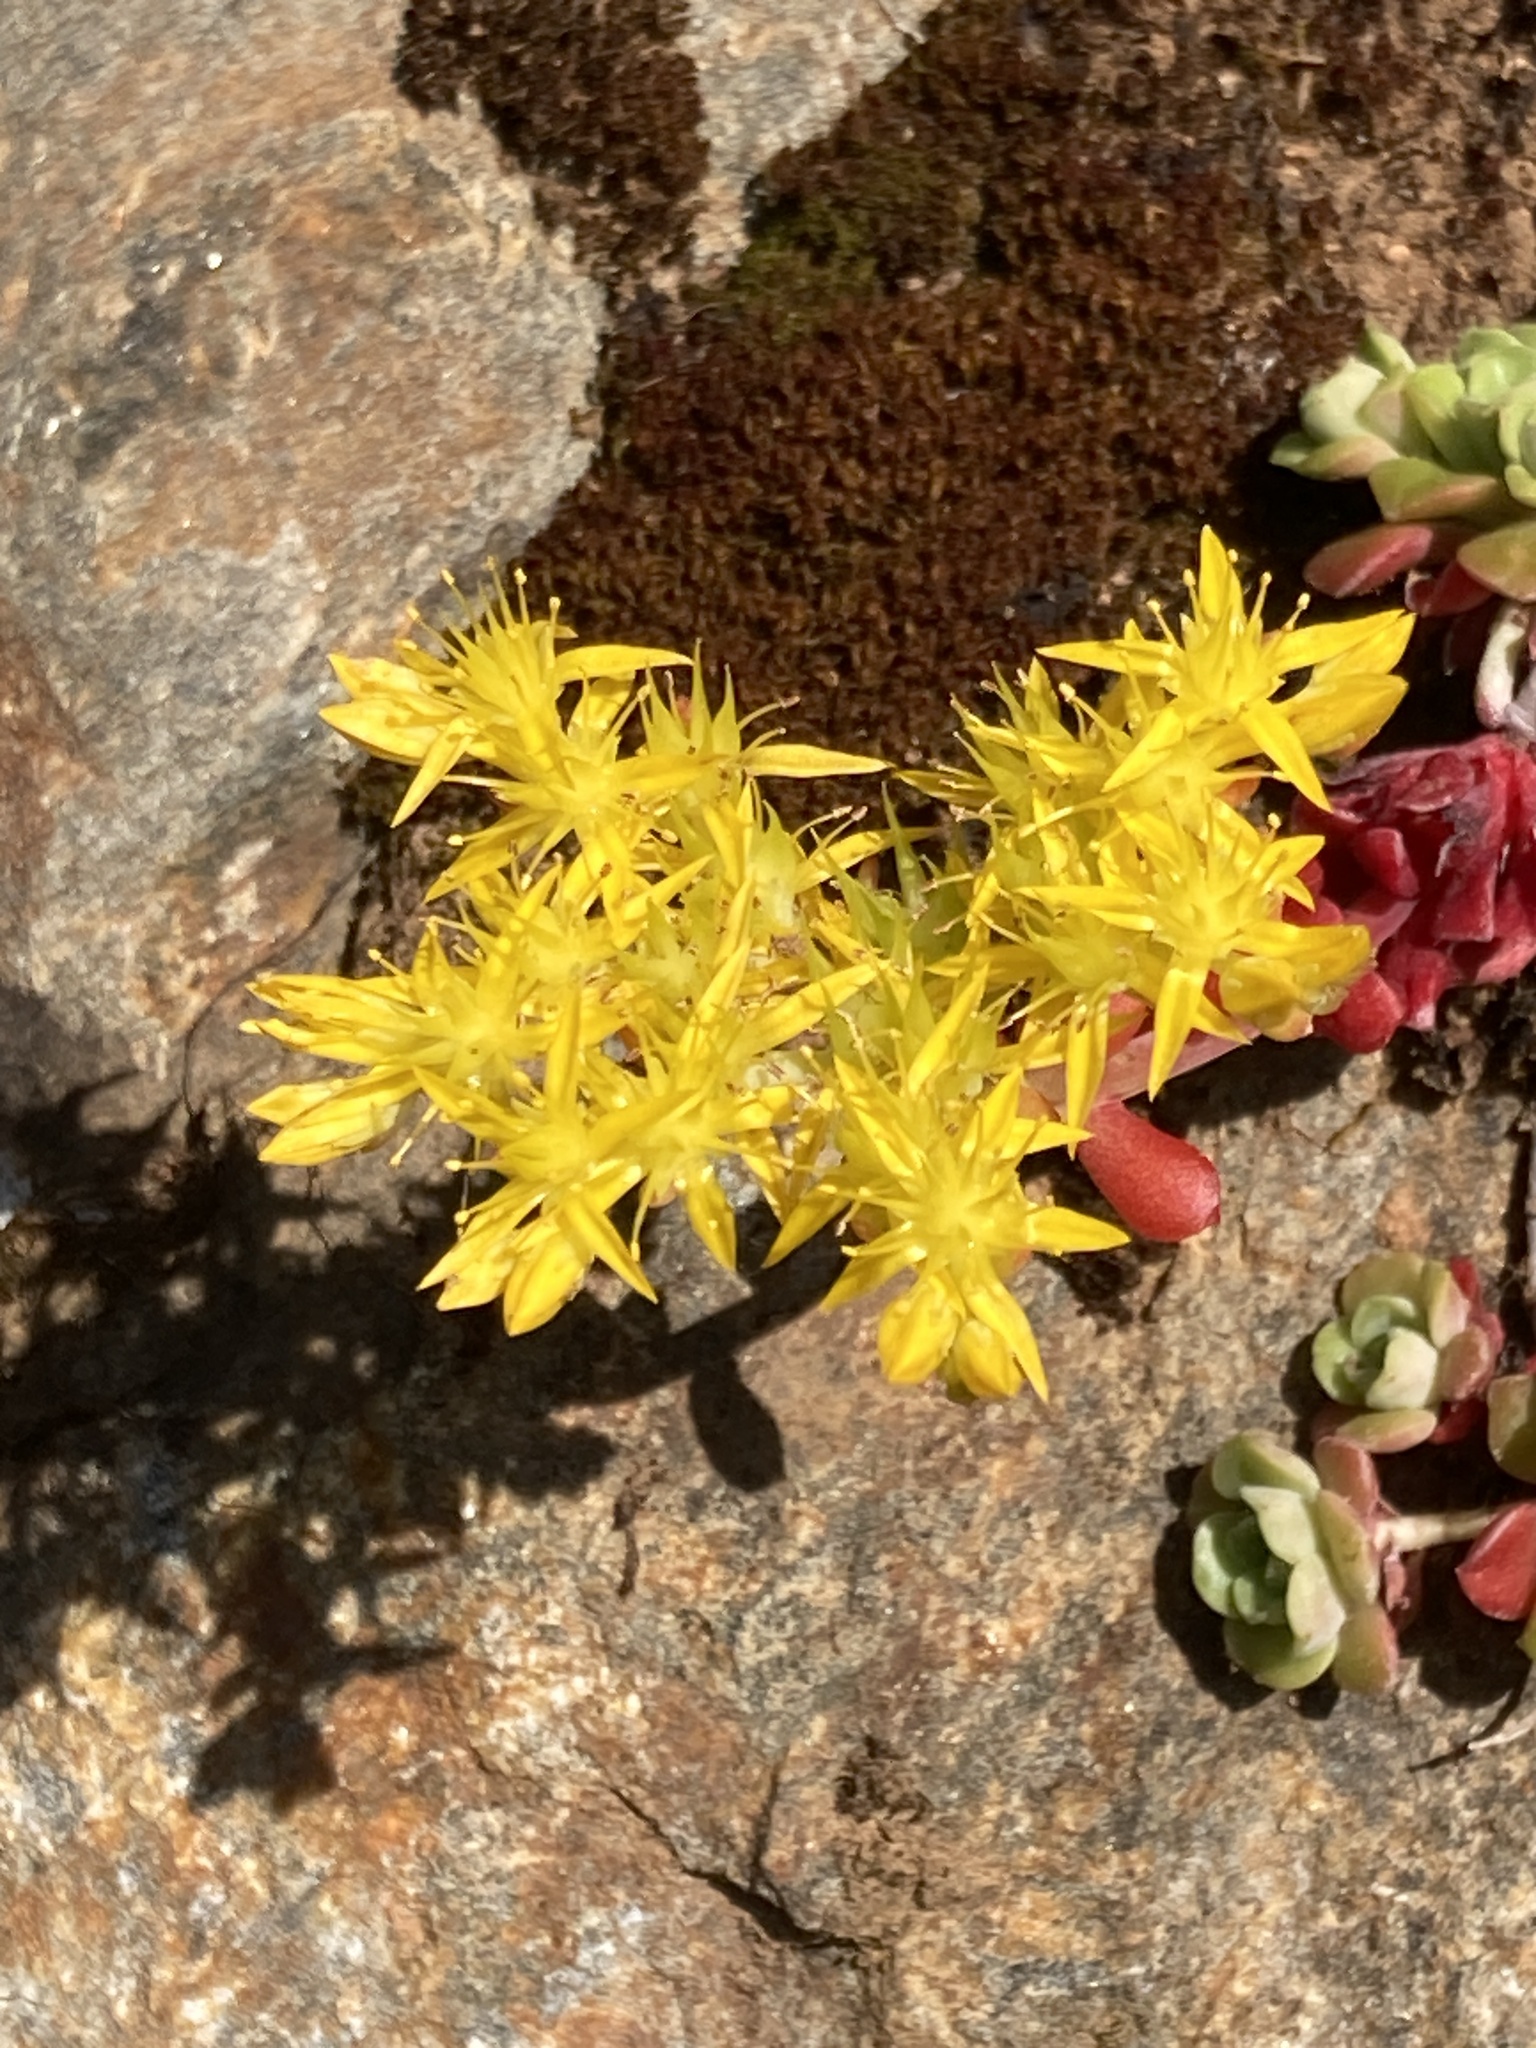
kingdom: Plantae
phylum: Tracheophyta
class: Magnoliopsida
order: Saxifragales
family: Crassulaceae
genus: Sedum
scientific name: Sedum spathulifolium
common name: Colorado stonecrop
